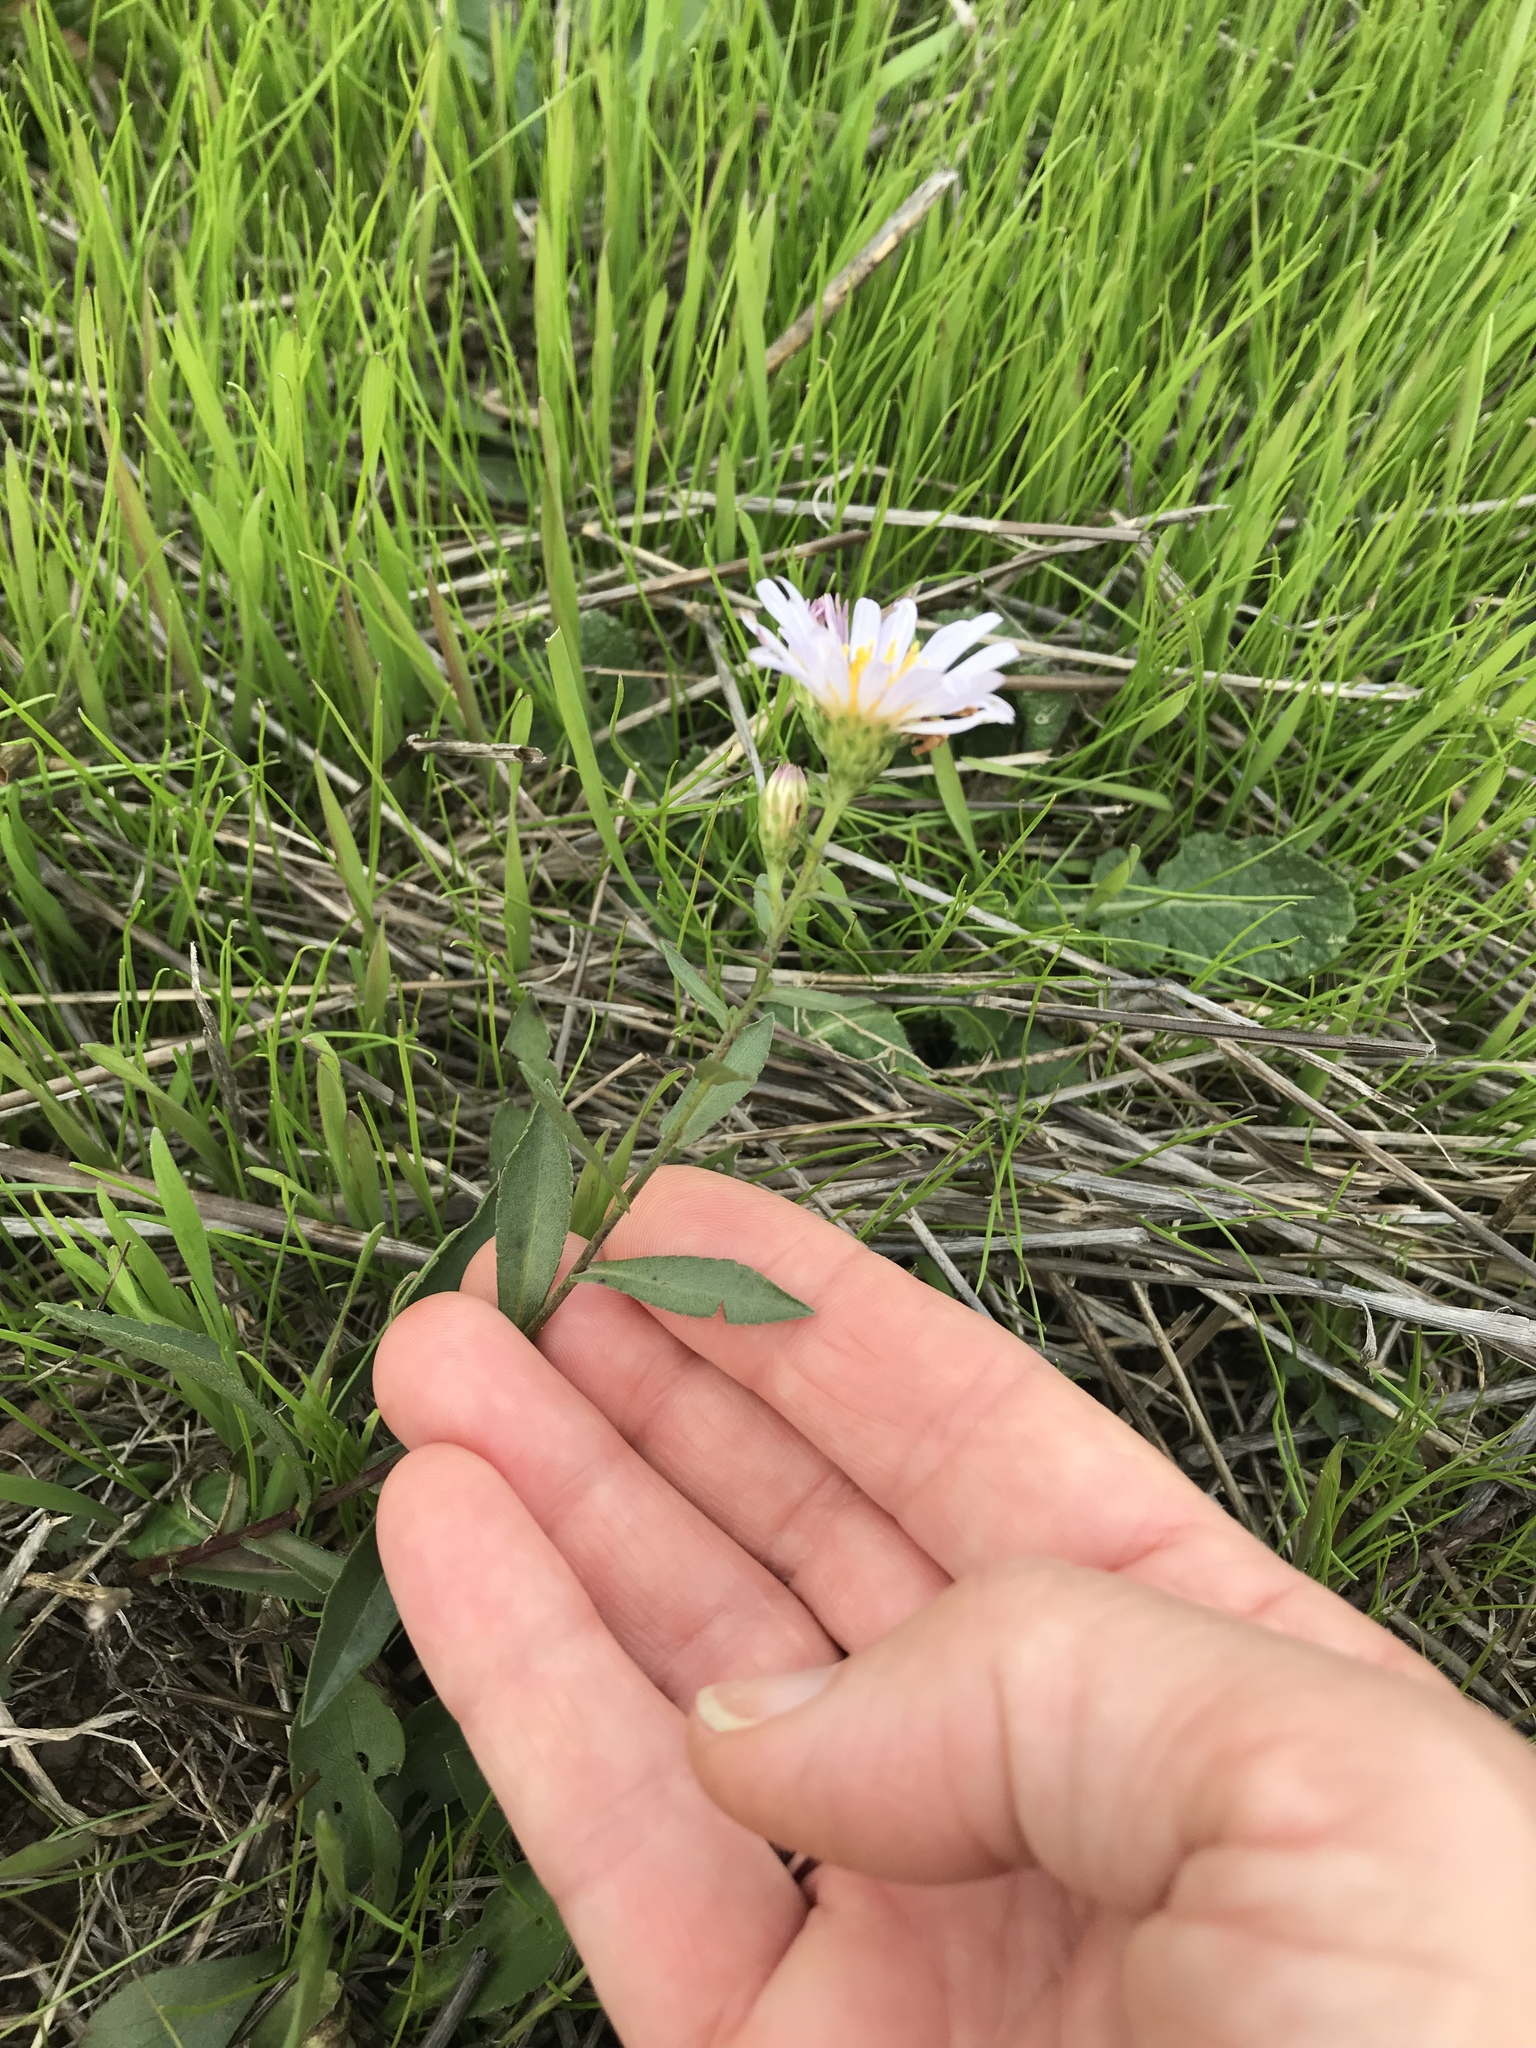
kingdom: Plantae
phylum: Tracheophyta
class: Magnoliopsida
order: Asterales
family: Asteraceae
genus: Symphyotrichum
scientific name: Symphyotrichum chilense
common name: Pacific aster
